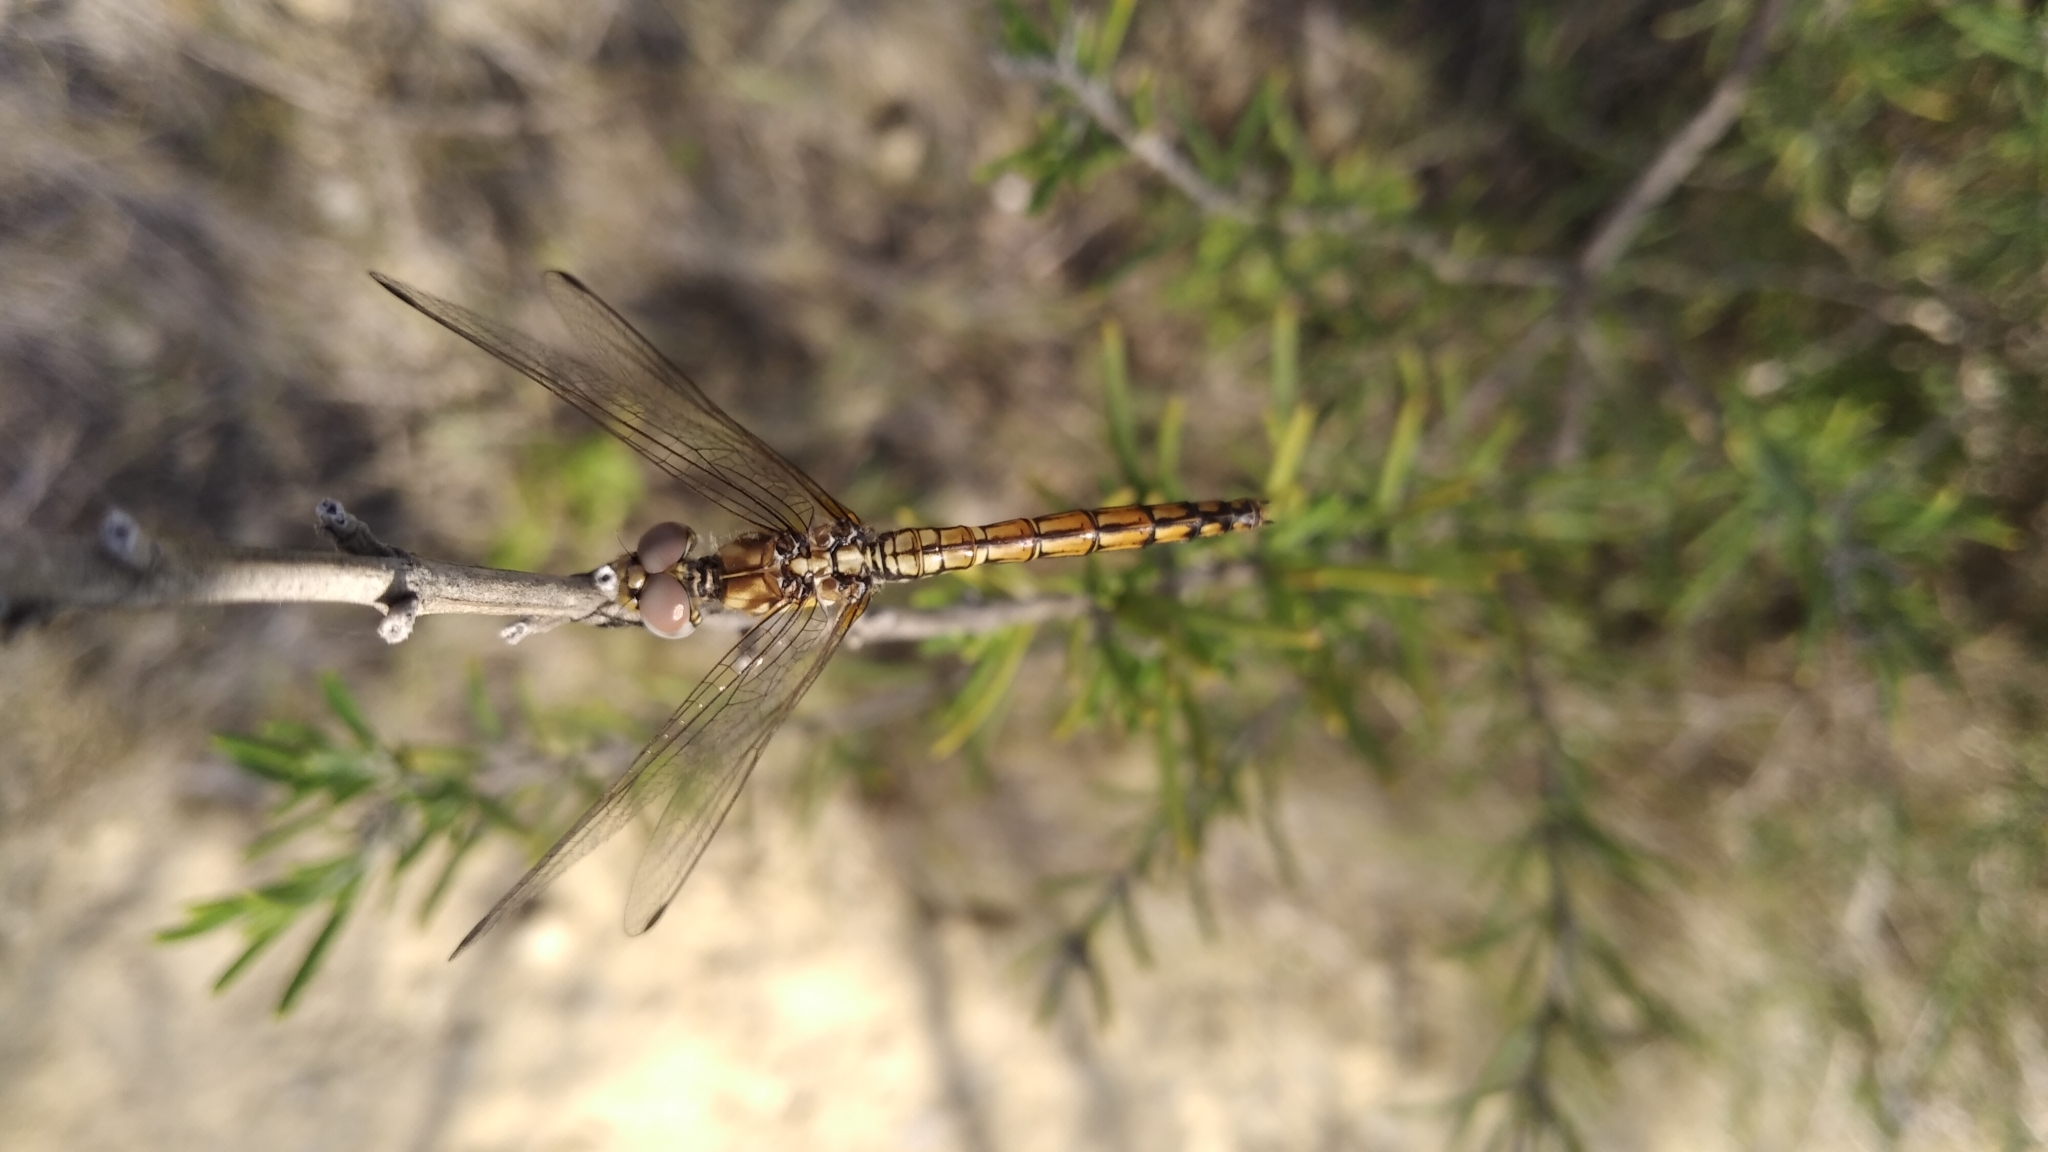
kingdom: Animalia
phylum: Arthropoda
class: Insecta
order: Odonata
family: Libellulidae
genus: Trithemis
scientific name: Trithemis annulata
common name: Violet dropwing
